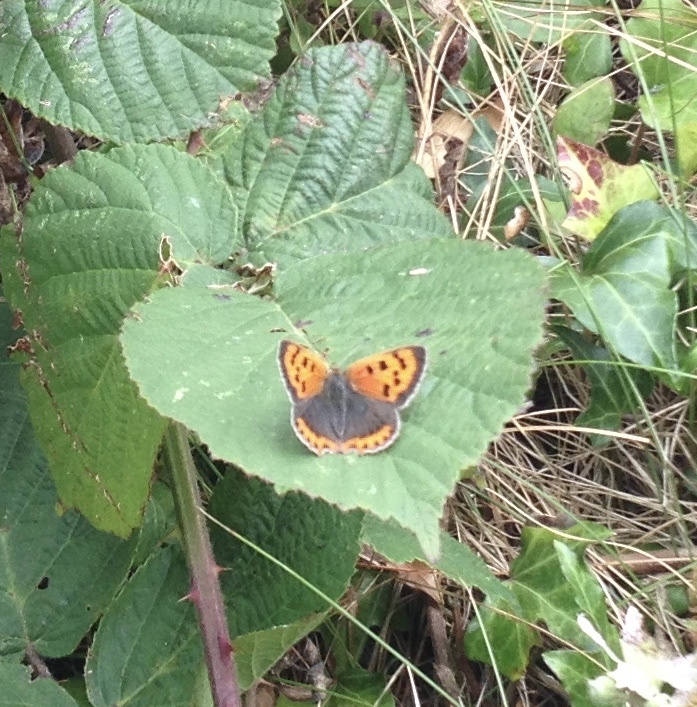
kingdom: Animalia
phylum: Arthropoda
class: Insecta
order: Lepidoptera
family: Lycaenidae
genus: Lycaena
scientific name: Lycaena phlaeas
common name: Small copper
